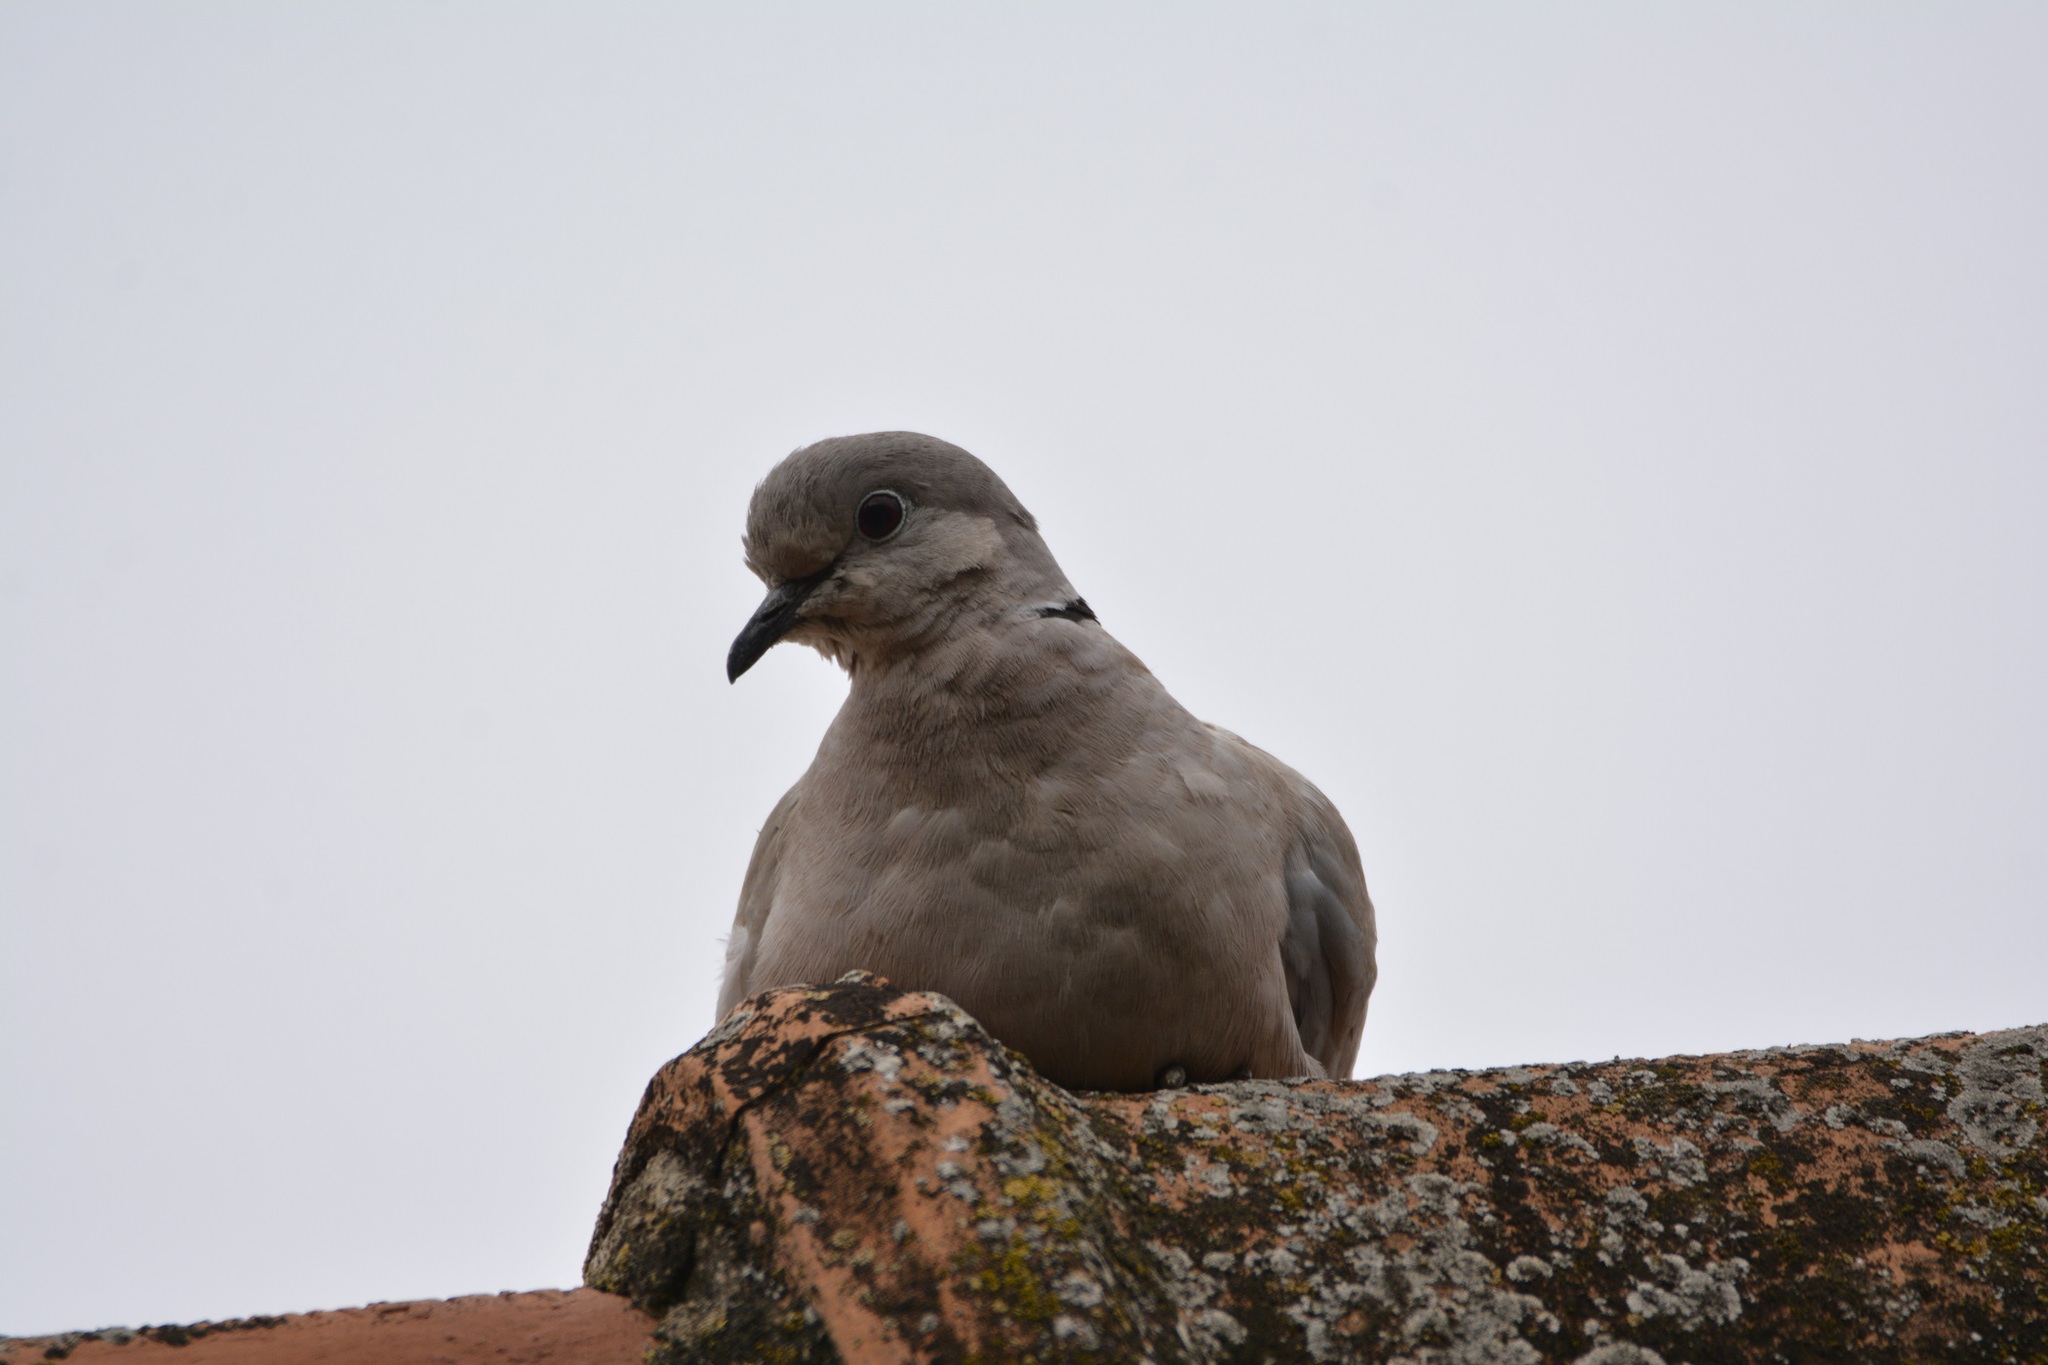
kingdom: Animalia
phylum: Chordata
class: Aves
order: Columbiformes
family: Columbidae
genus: Streptopelia
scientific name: Streptopelia decaocto
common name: Eurasian collared dove
